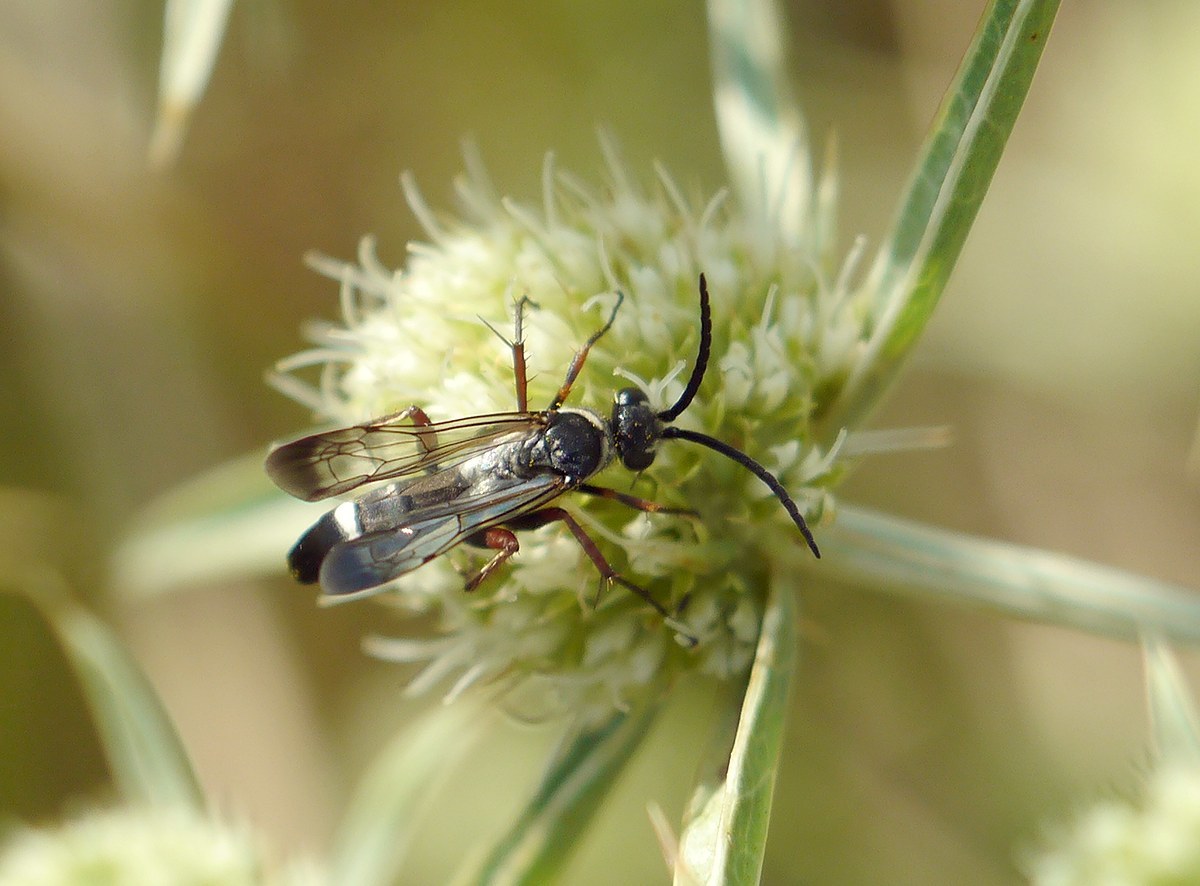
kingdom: Animalia
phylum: Arthropoda
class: Insecta
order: Hymenoptera
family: Pompilidae
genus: Episyron
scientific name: Episyron rufipes
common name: Red legged spider wasp
